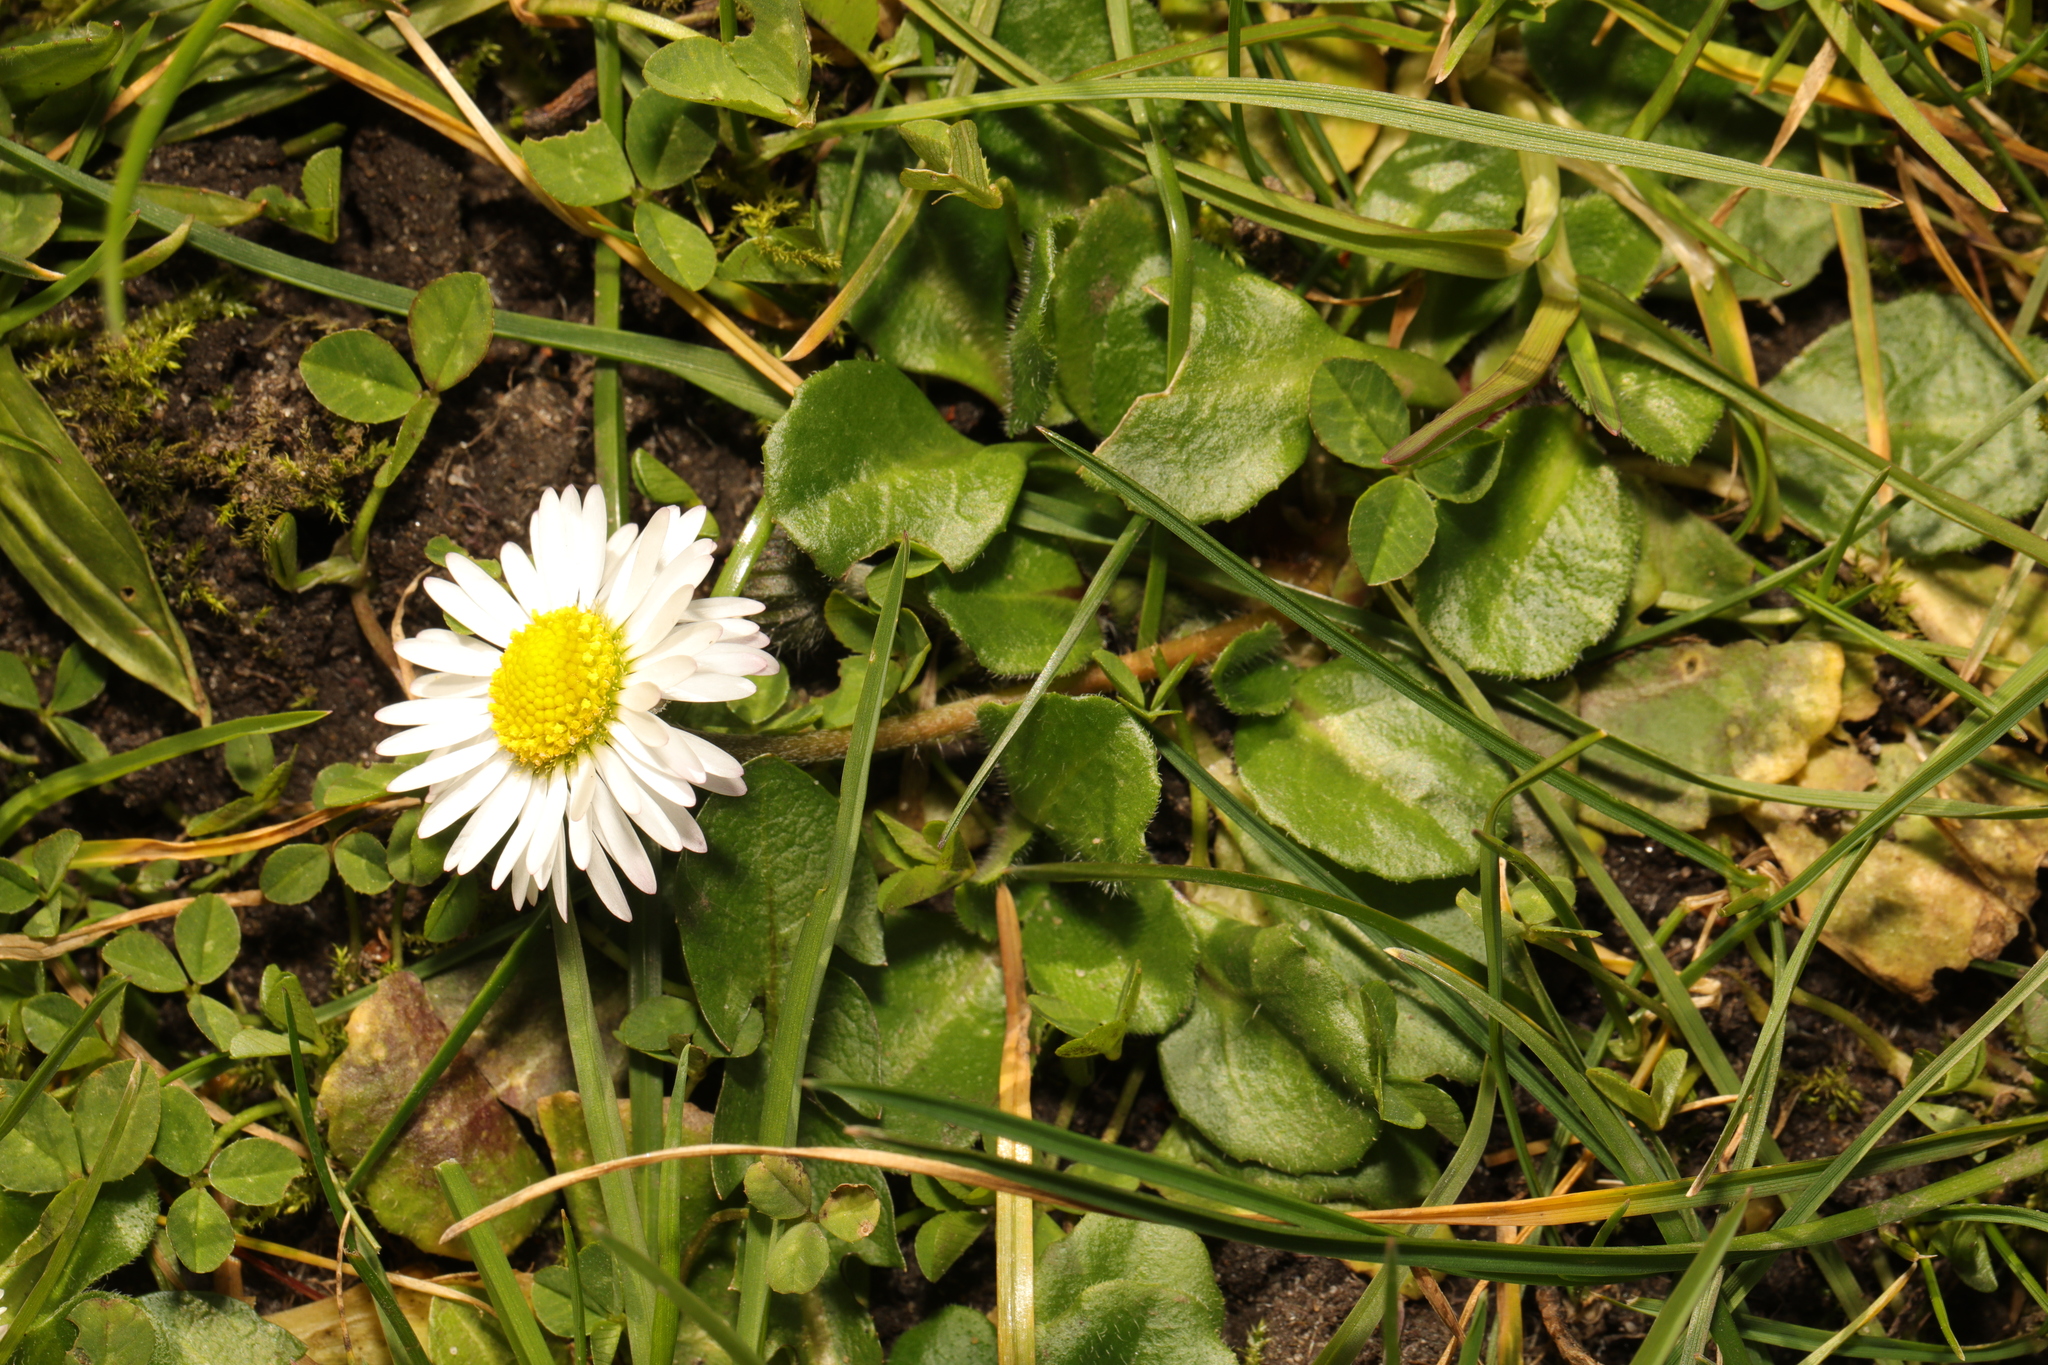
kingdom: Plantae
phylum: Tracheophyta
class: Magnoliopsida
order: Asterales
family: Asteraceae
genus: Bellis
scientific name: Bellis perennis
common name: Lawndaisy
